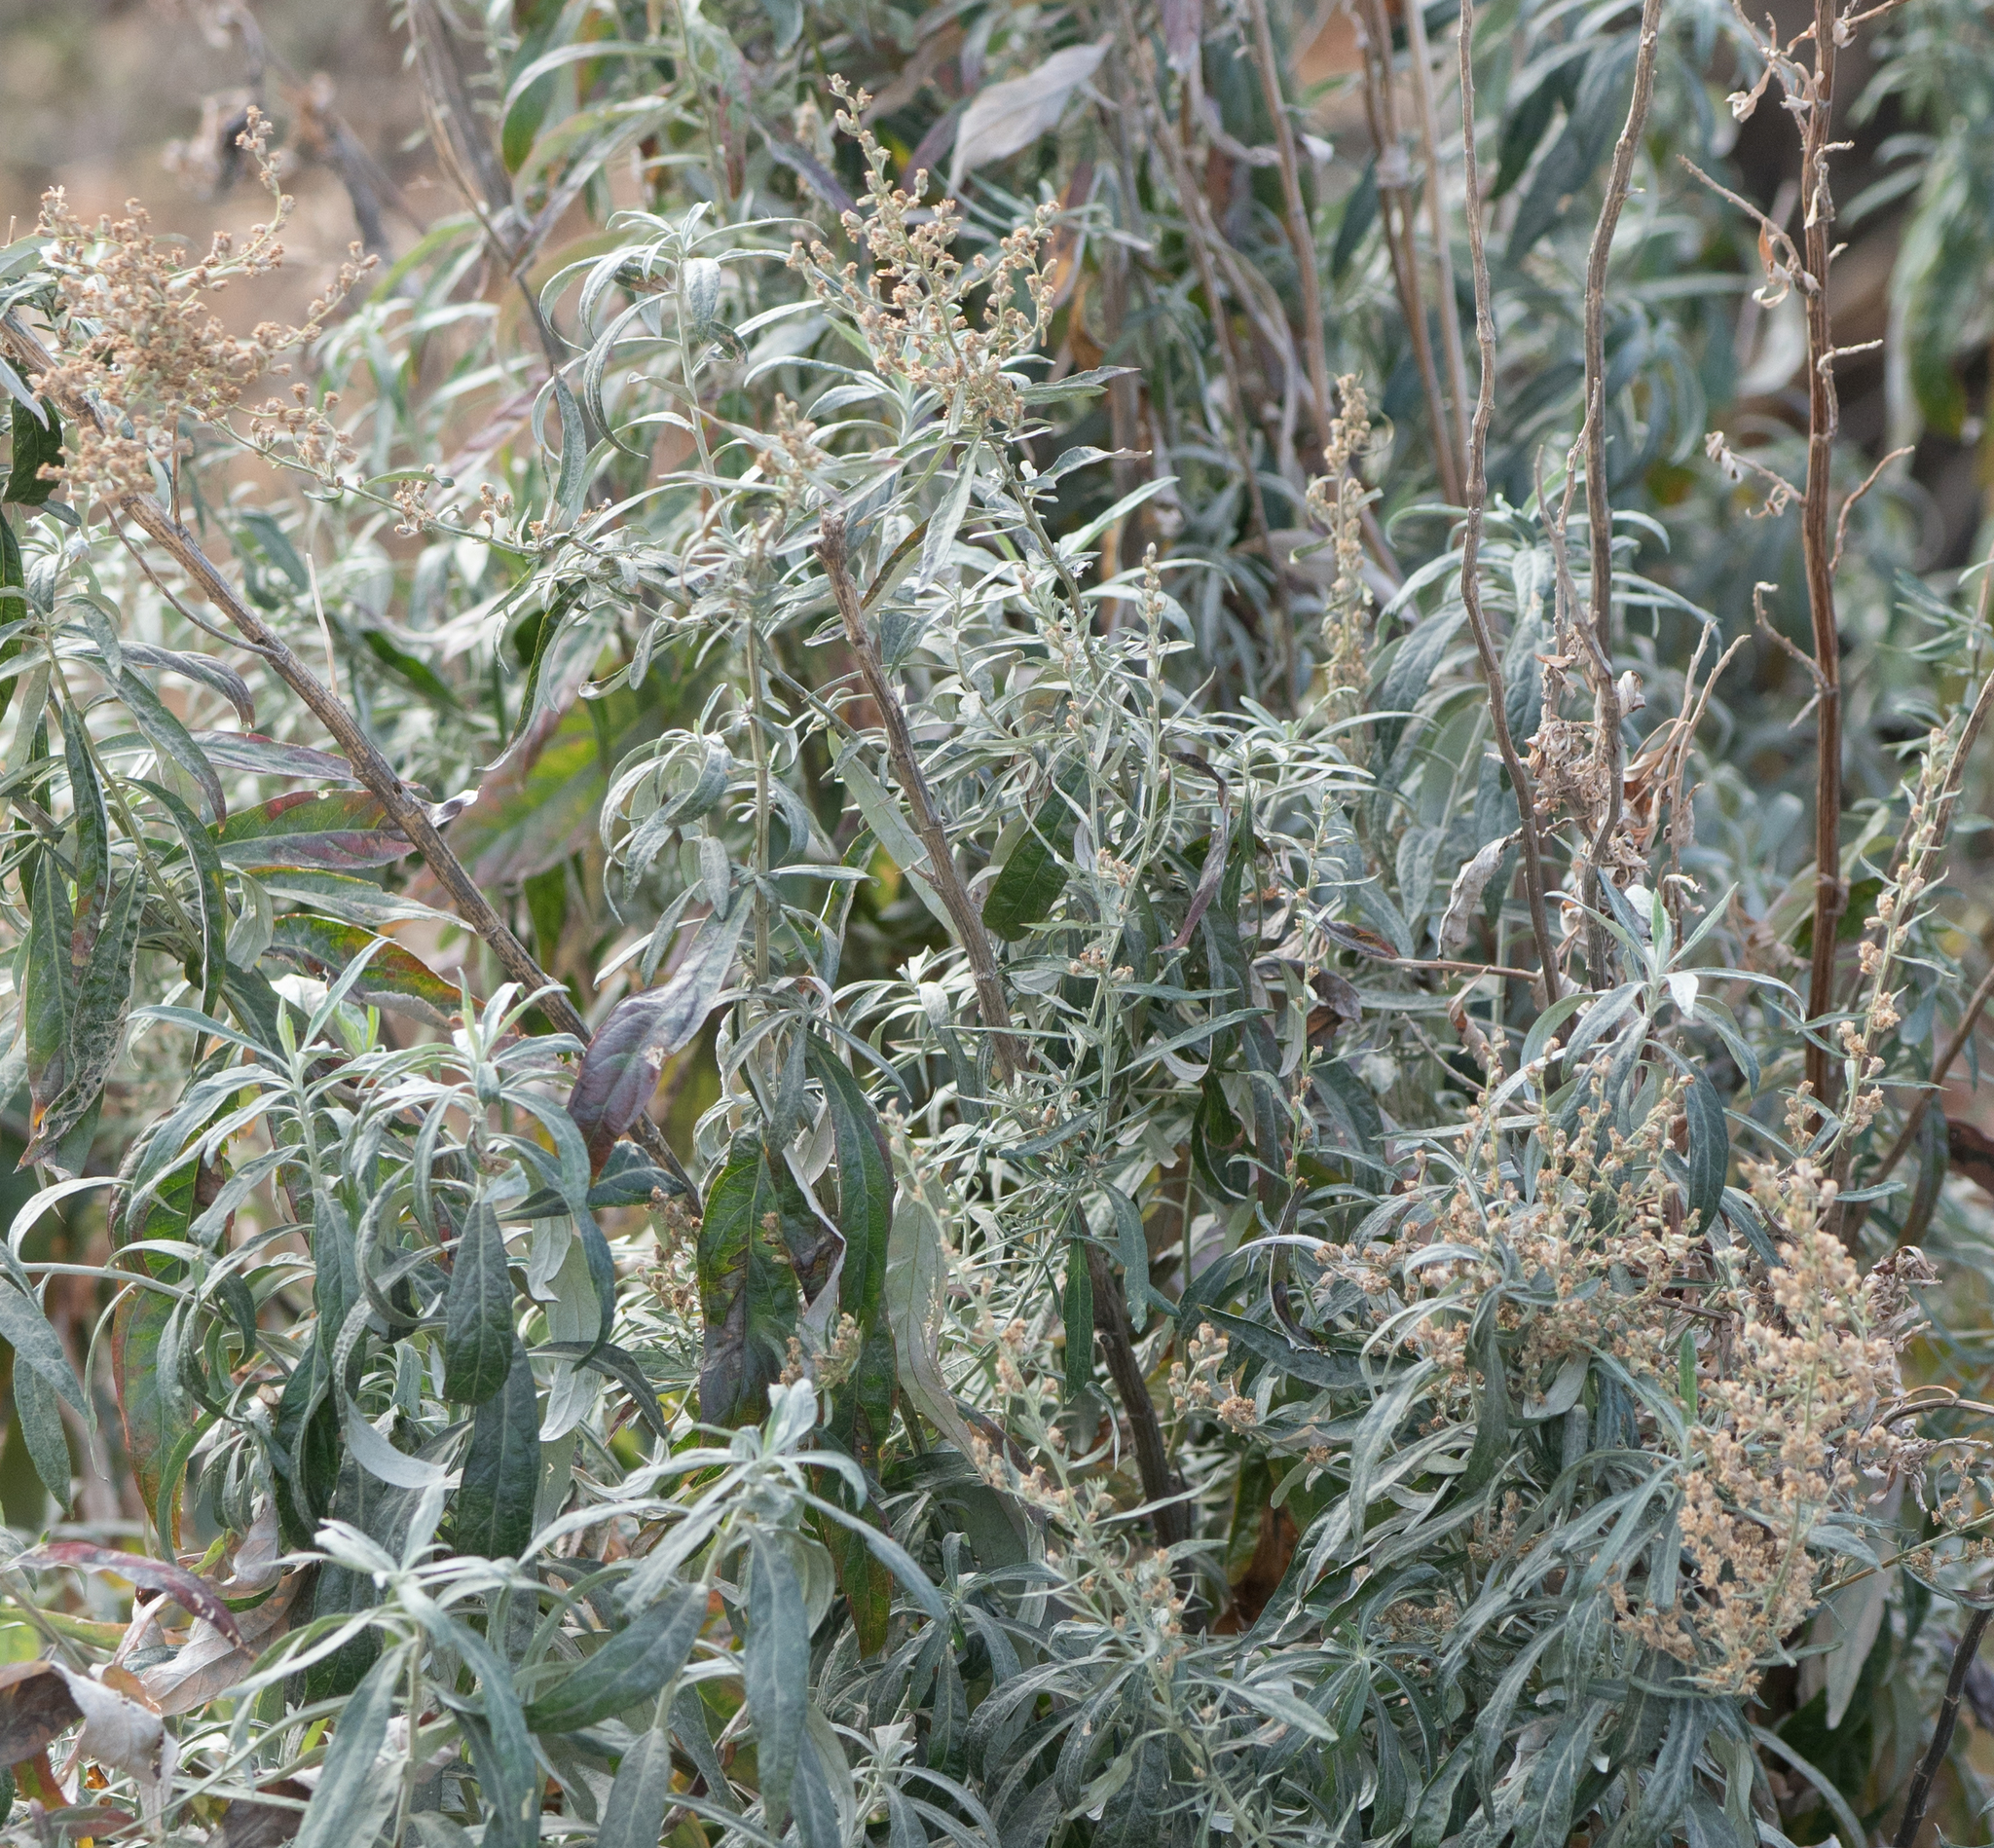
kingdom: Plantae
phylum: Tracheophyta
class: Magnoliopsida
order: Asterales
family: Asteraceae
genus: Artemisia
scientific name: Artemisia douglasiana
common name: Northwest mugwort
